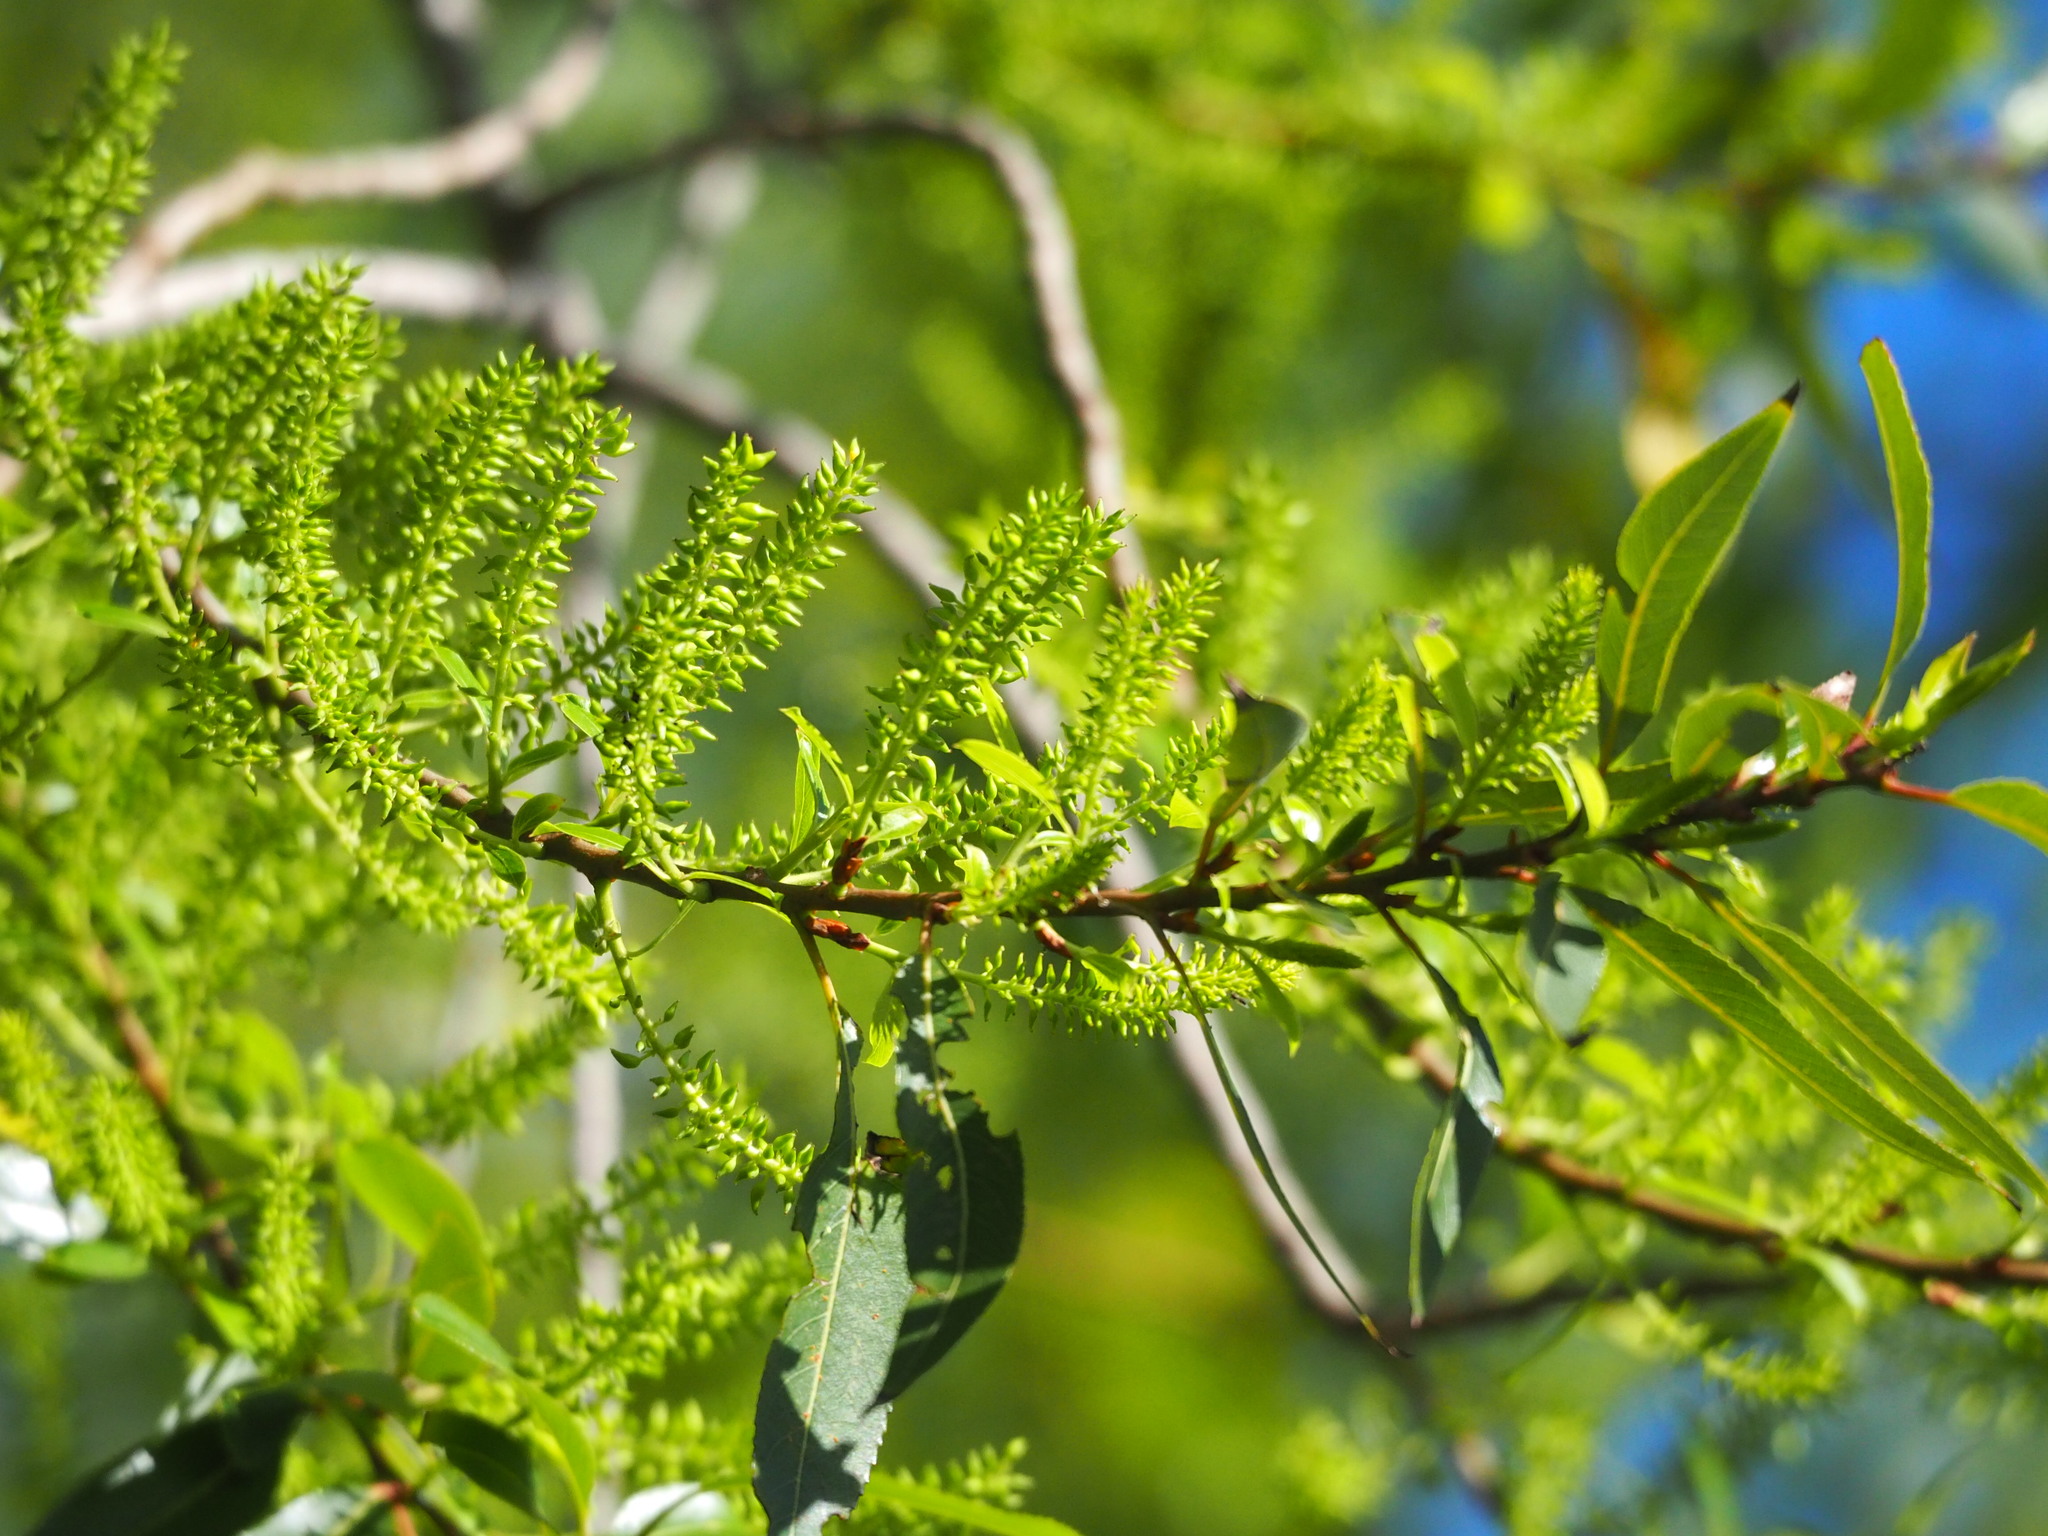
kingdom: Plantae
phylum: Tracheophyta
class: Magnoliopsida
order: Malpighiales
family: Salicaceae
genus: Salix
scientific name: Salix mesnyi
